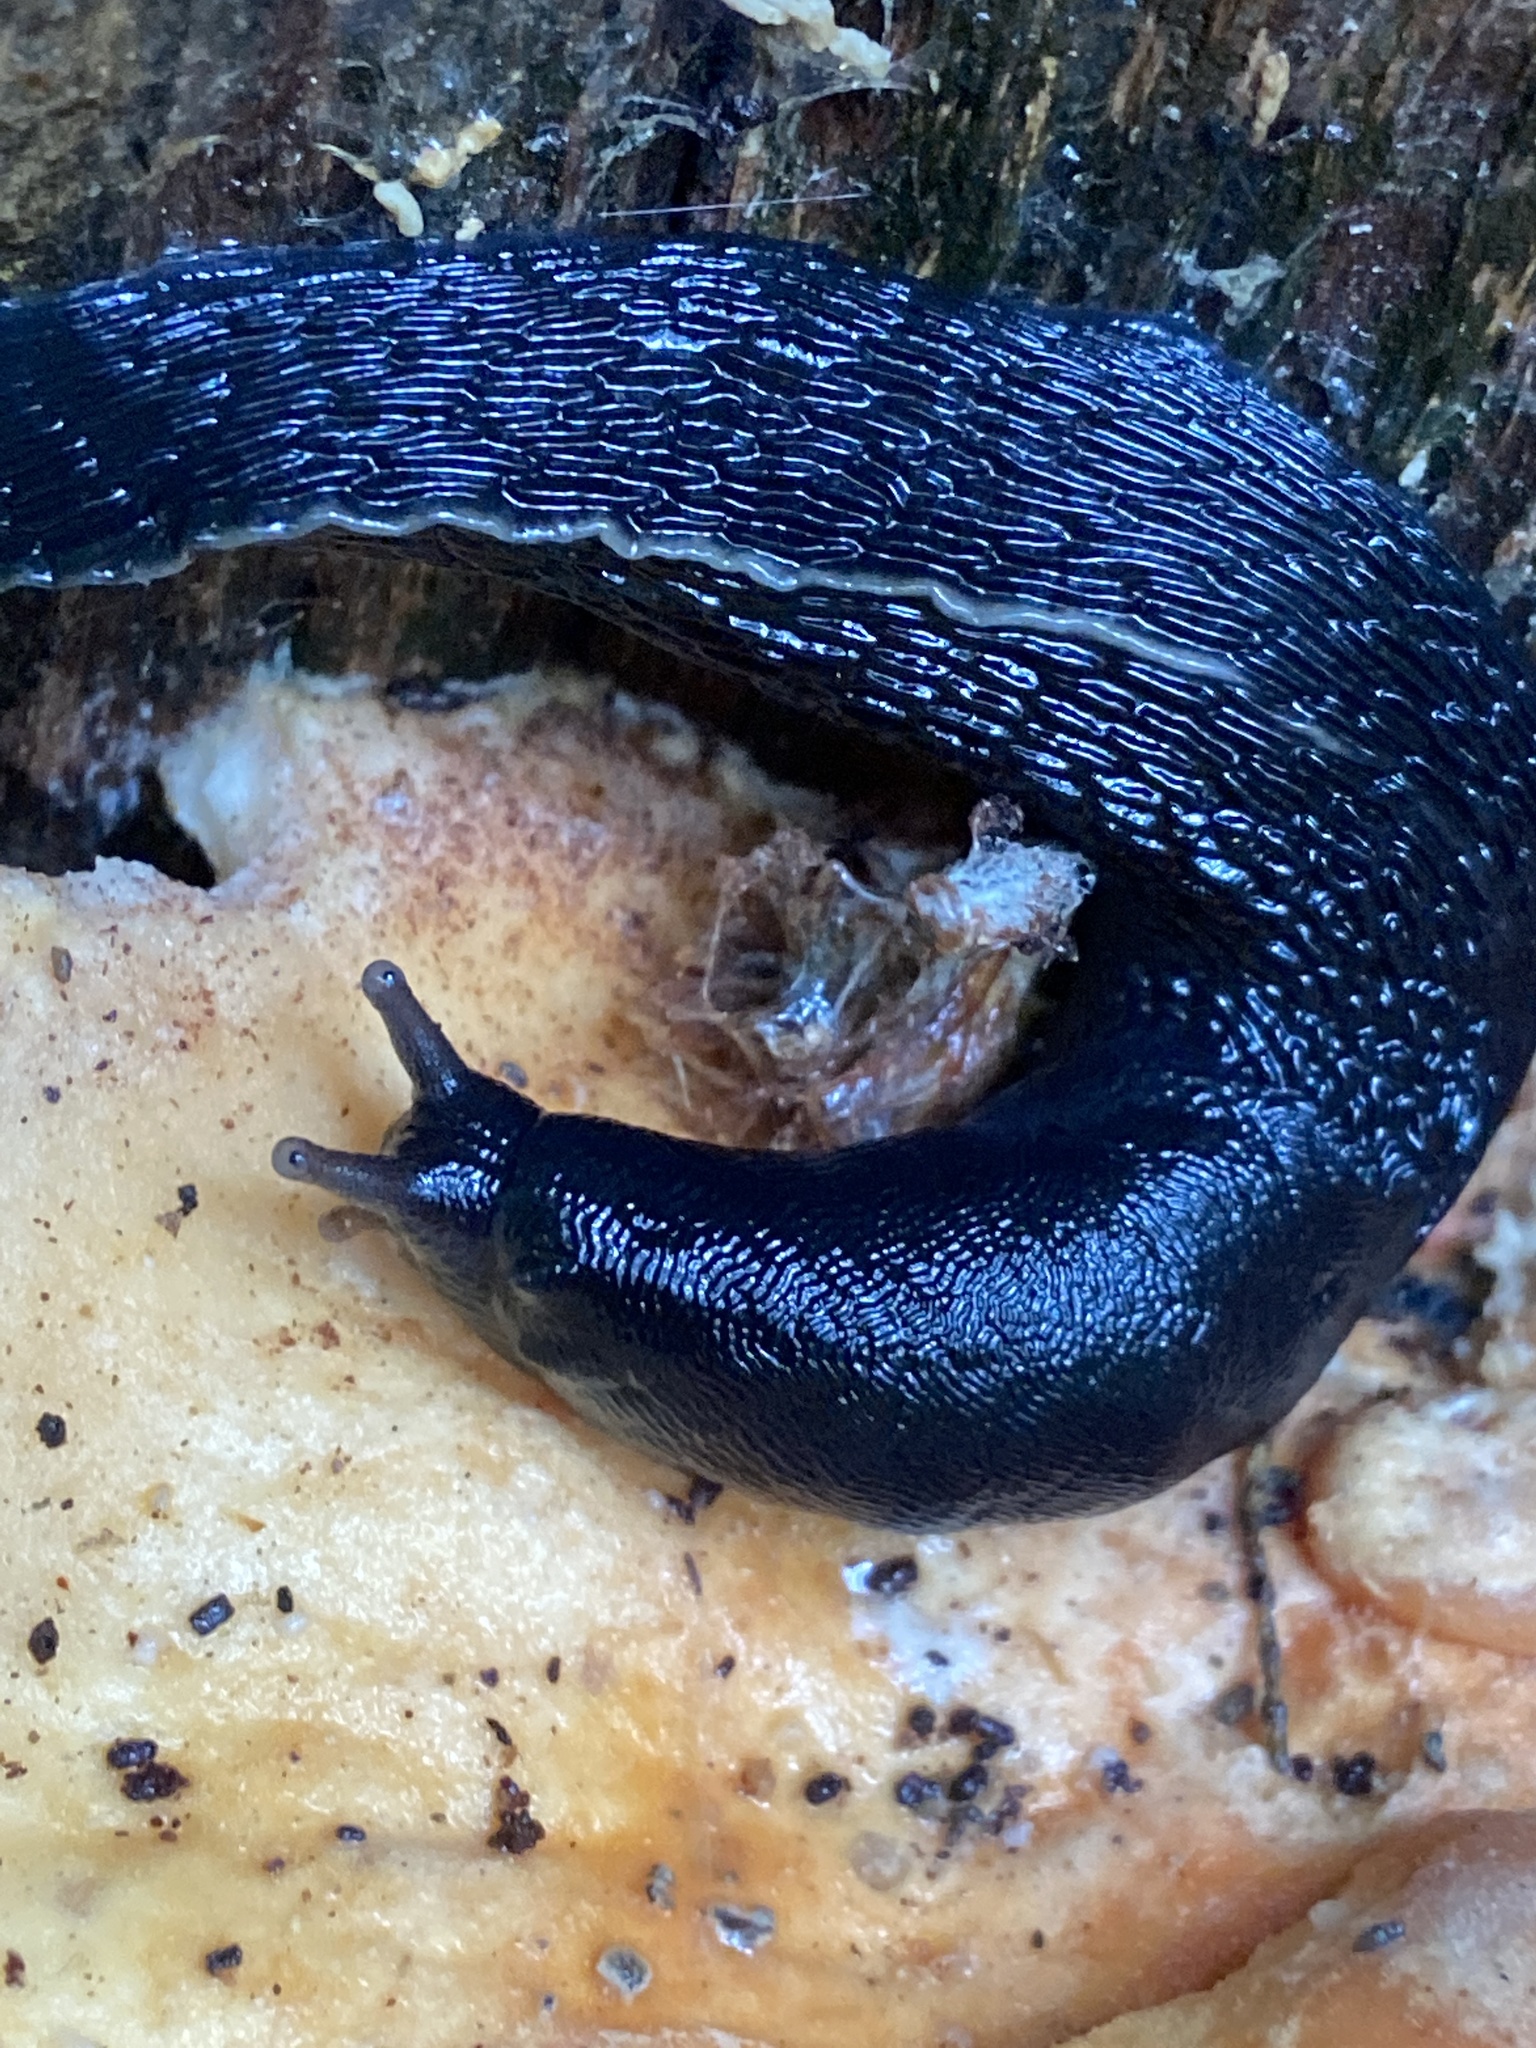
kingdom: Animalia
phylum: Mollusca
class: Gastropoda
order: Stylommatophora
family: Limacidae
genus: Limax
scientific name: Limax cinereoniger
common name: Ash-black slug
